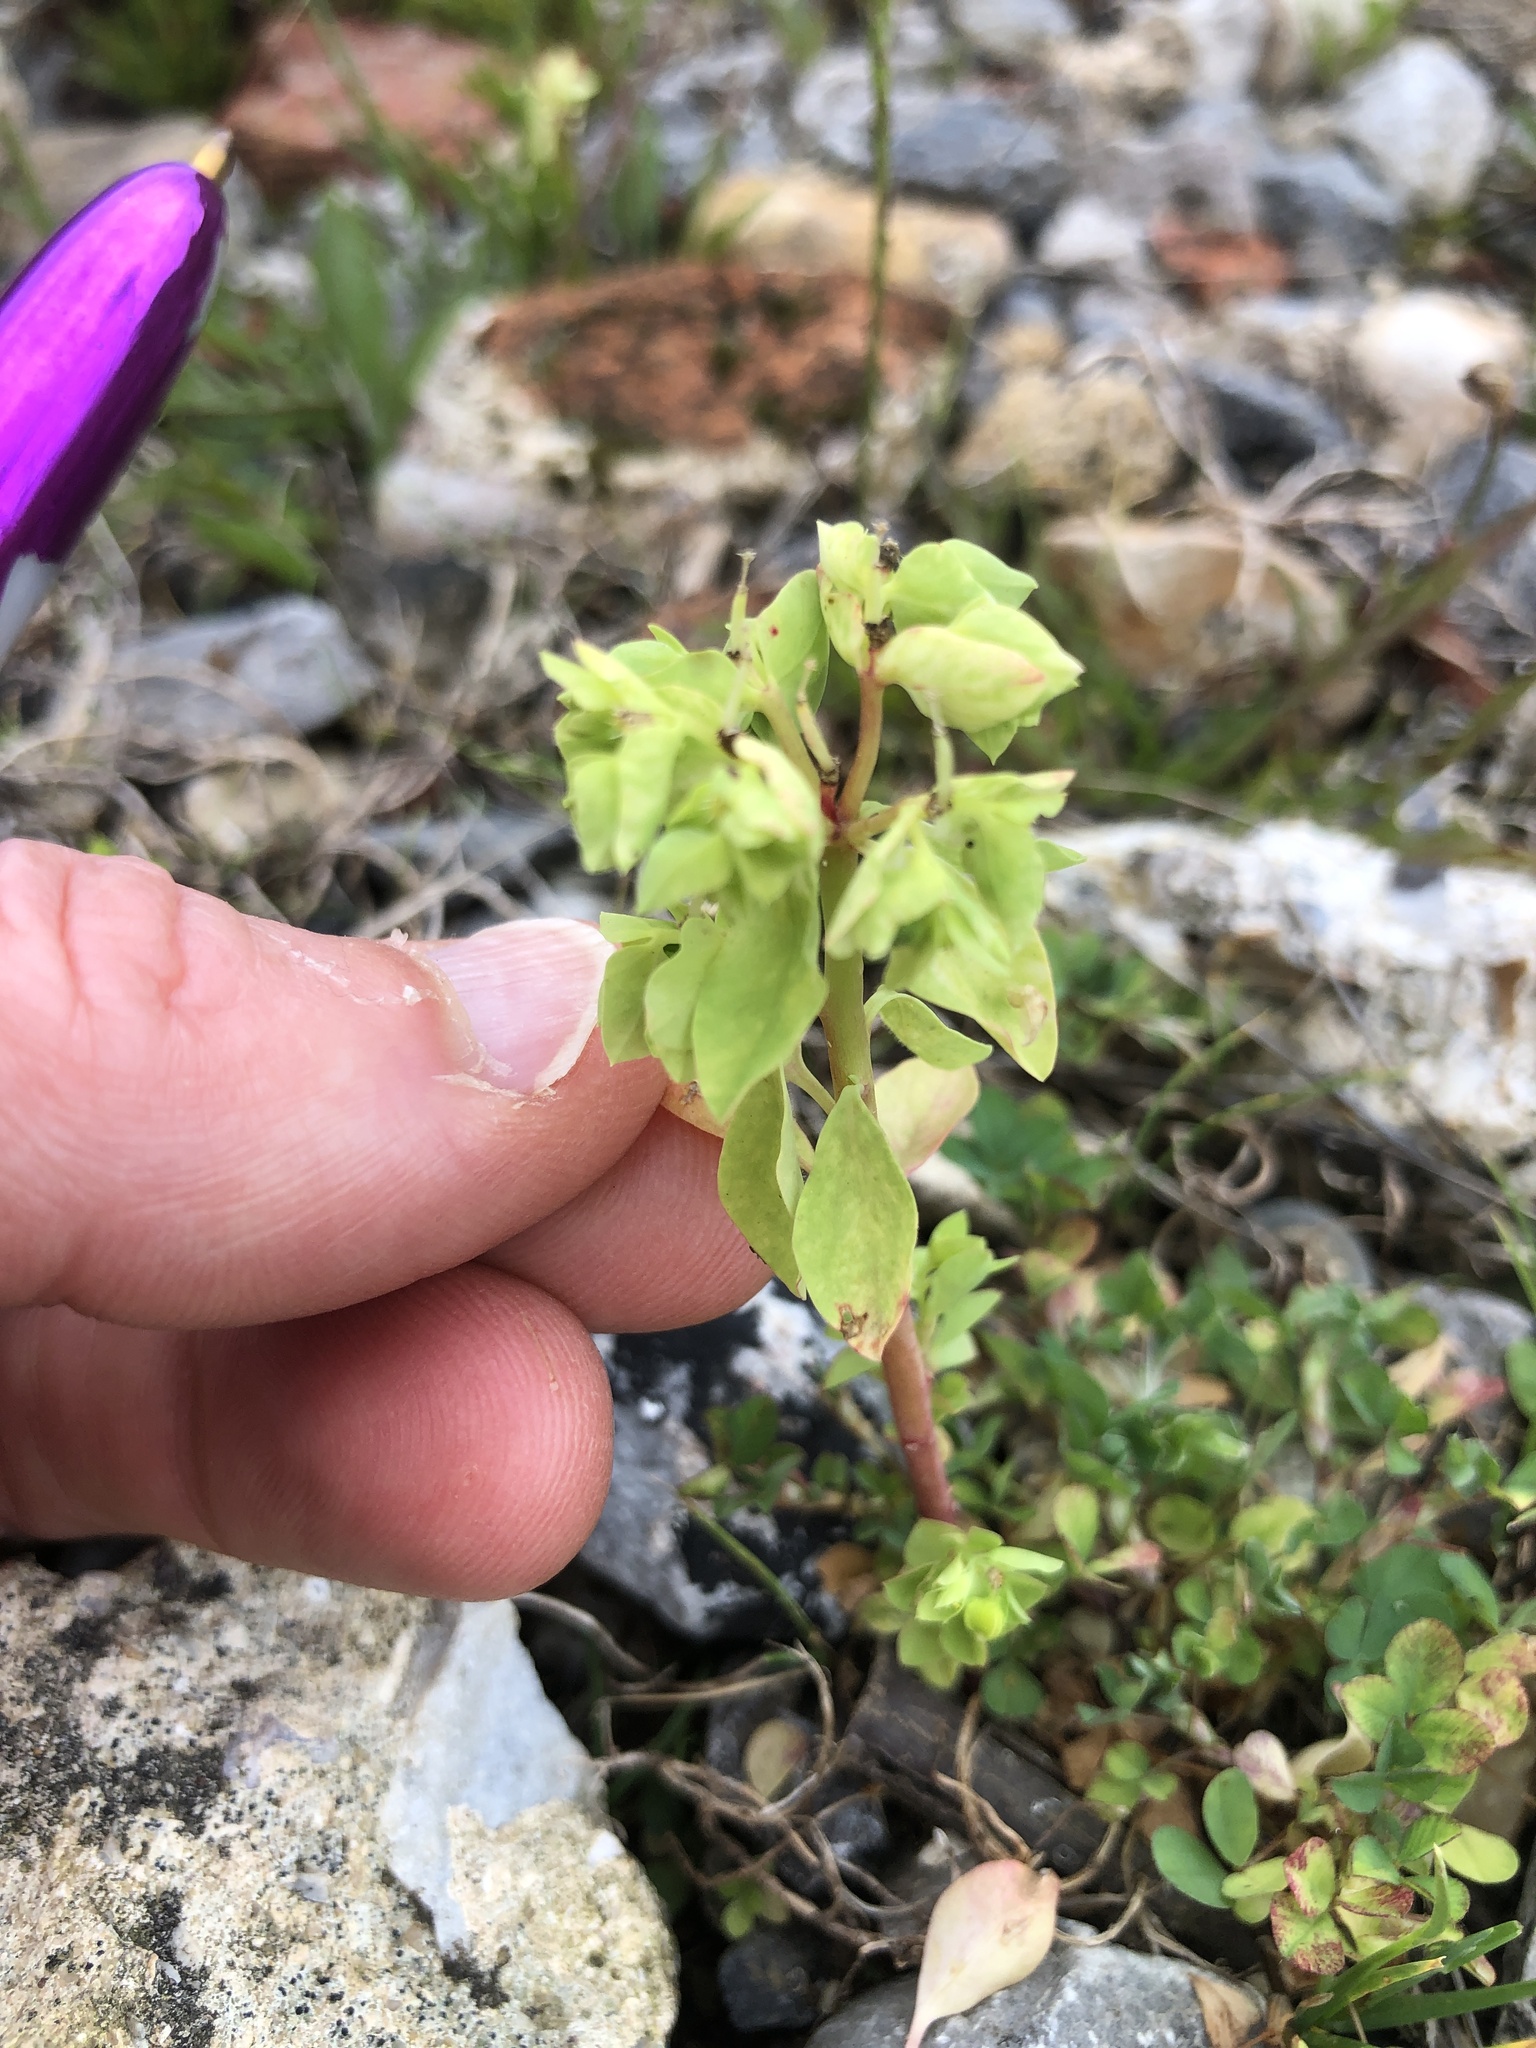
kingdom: Plantae
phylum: Tracheophyta
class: Magnoliopsida
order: Malpighiales
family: Euphorbiaceae
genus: Euphorbia
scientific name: Euphorbia peplus
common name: Petty spurge
